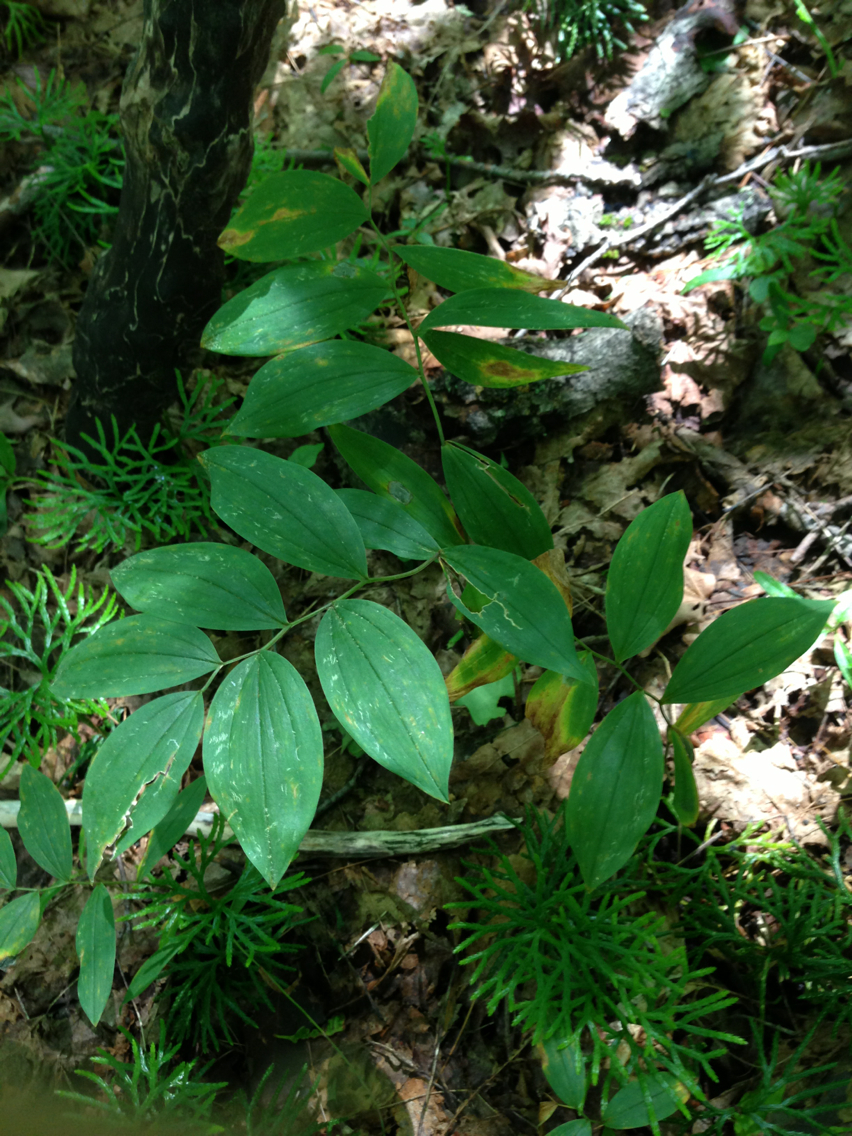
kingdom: Plantae
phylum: Tracheophyta
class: Liliopsida
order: Liliales
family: Colchicaceae
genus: Uvularia
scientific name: Uvularia sessilifolia
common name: Straw-lily
